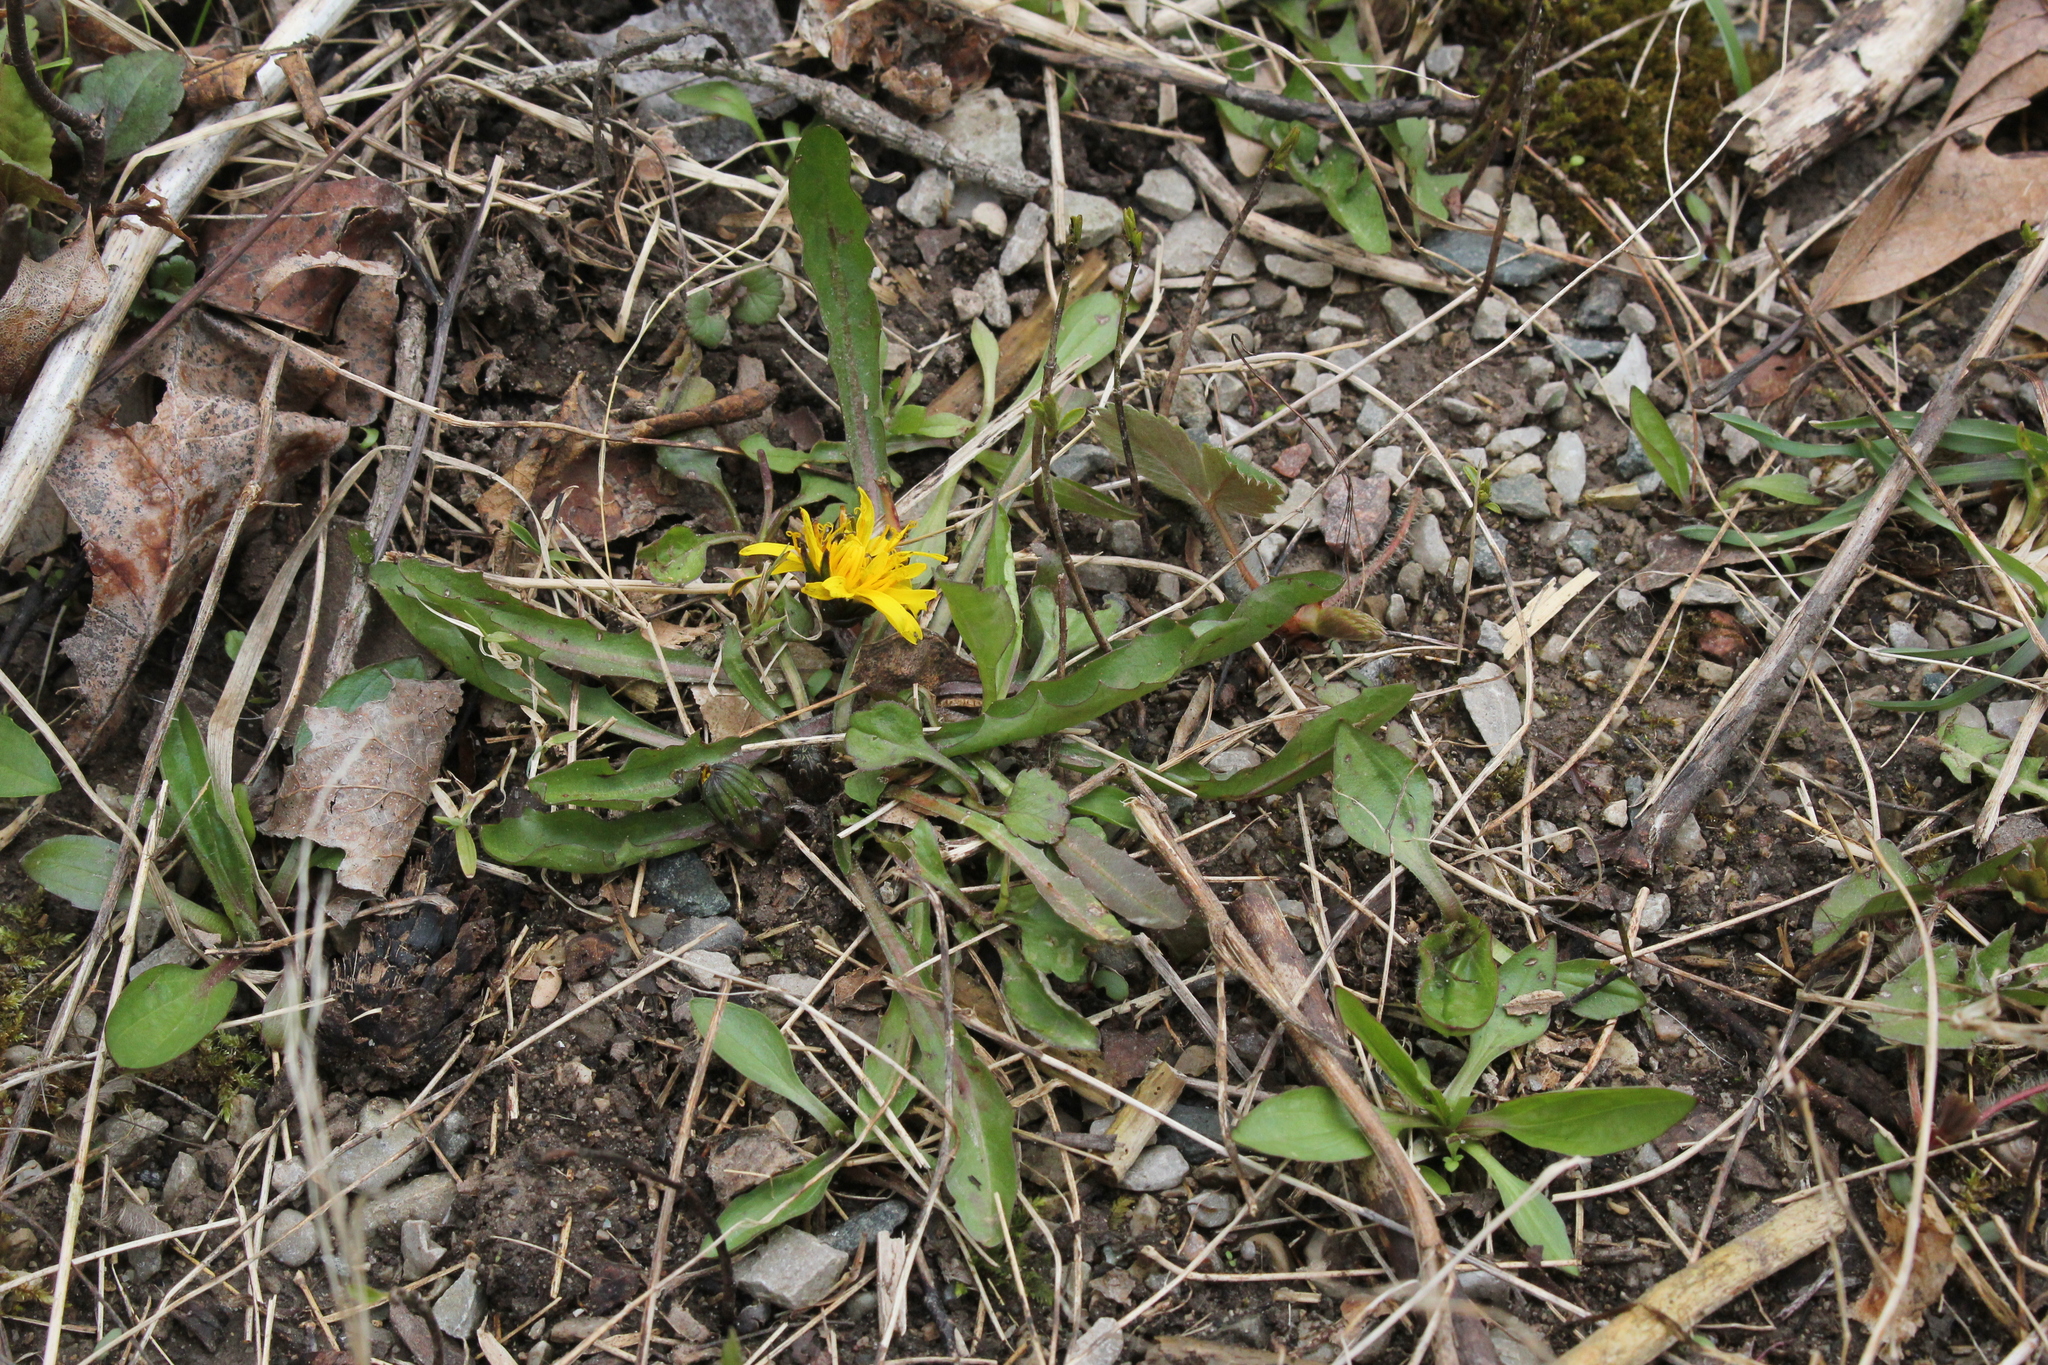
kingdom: Plantae
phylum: Tracheophyta
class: Magnoliopsida
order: Asterales
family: Asteraceae
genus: Taraxacum
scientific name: Taraxacum palustre
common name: Marsh dandelion
